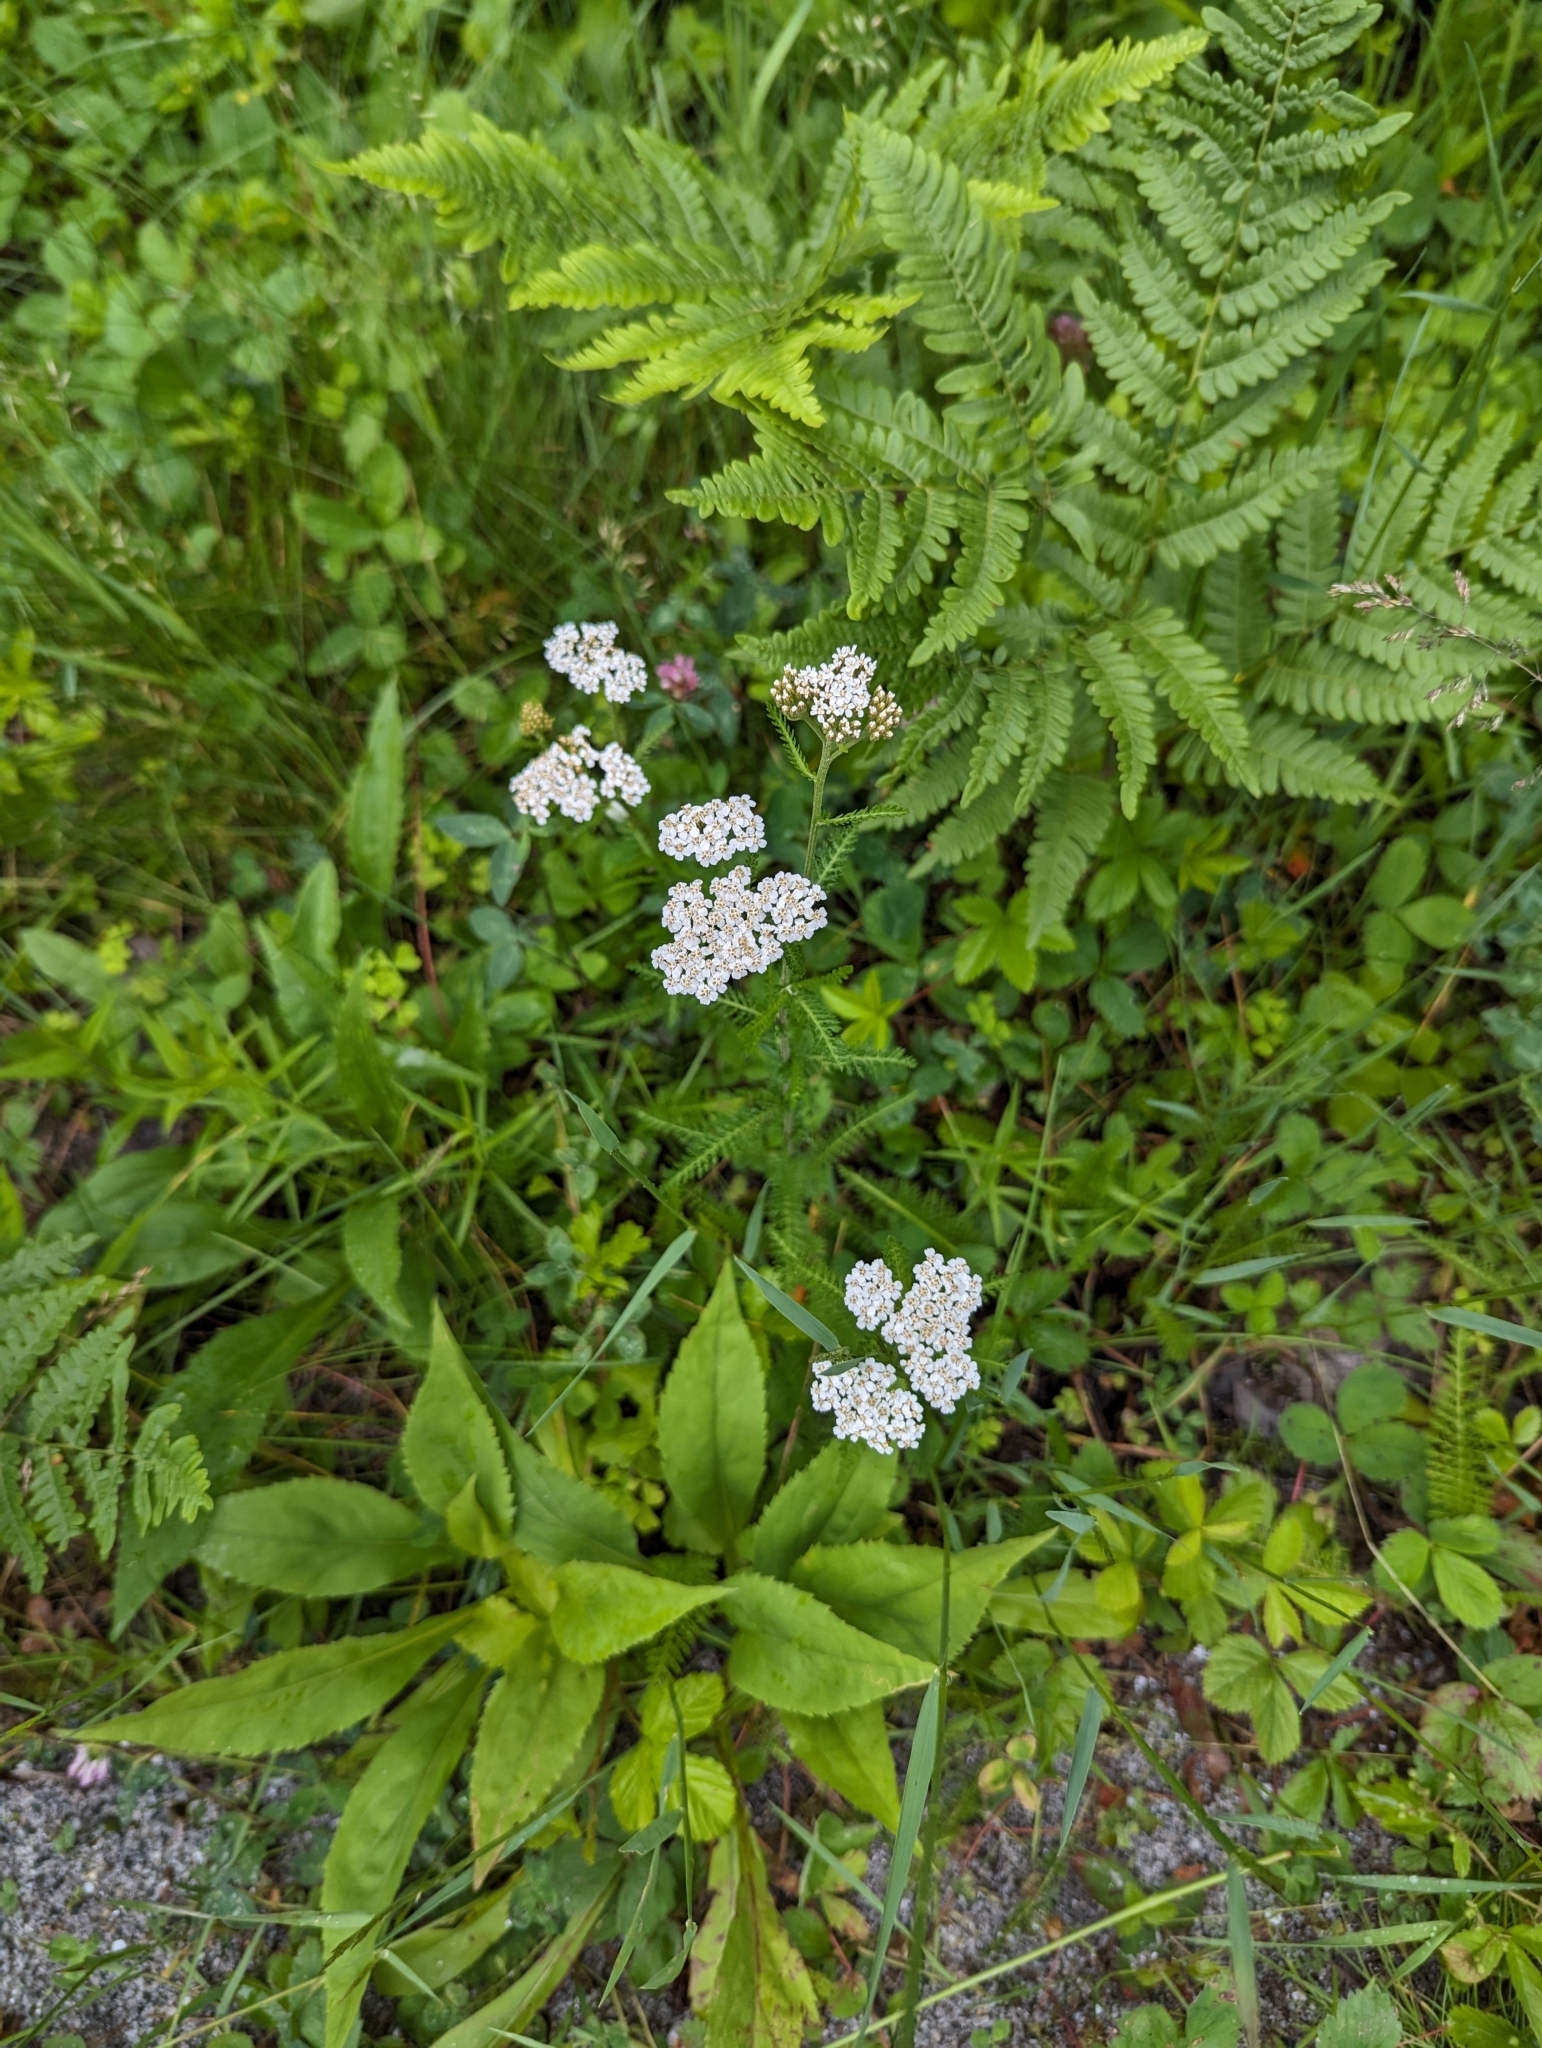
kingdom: Plantae
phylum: Tracheophyta
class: Magnoliopsida
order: Asterales
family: Asteraceae
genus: Achillea
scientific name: Achillea millefolium
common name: Yarrow
